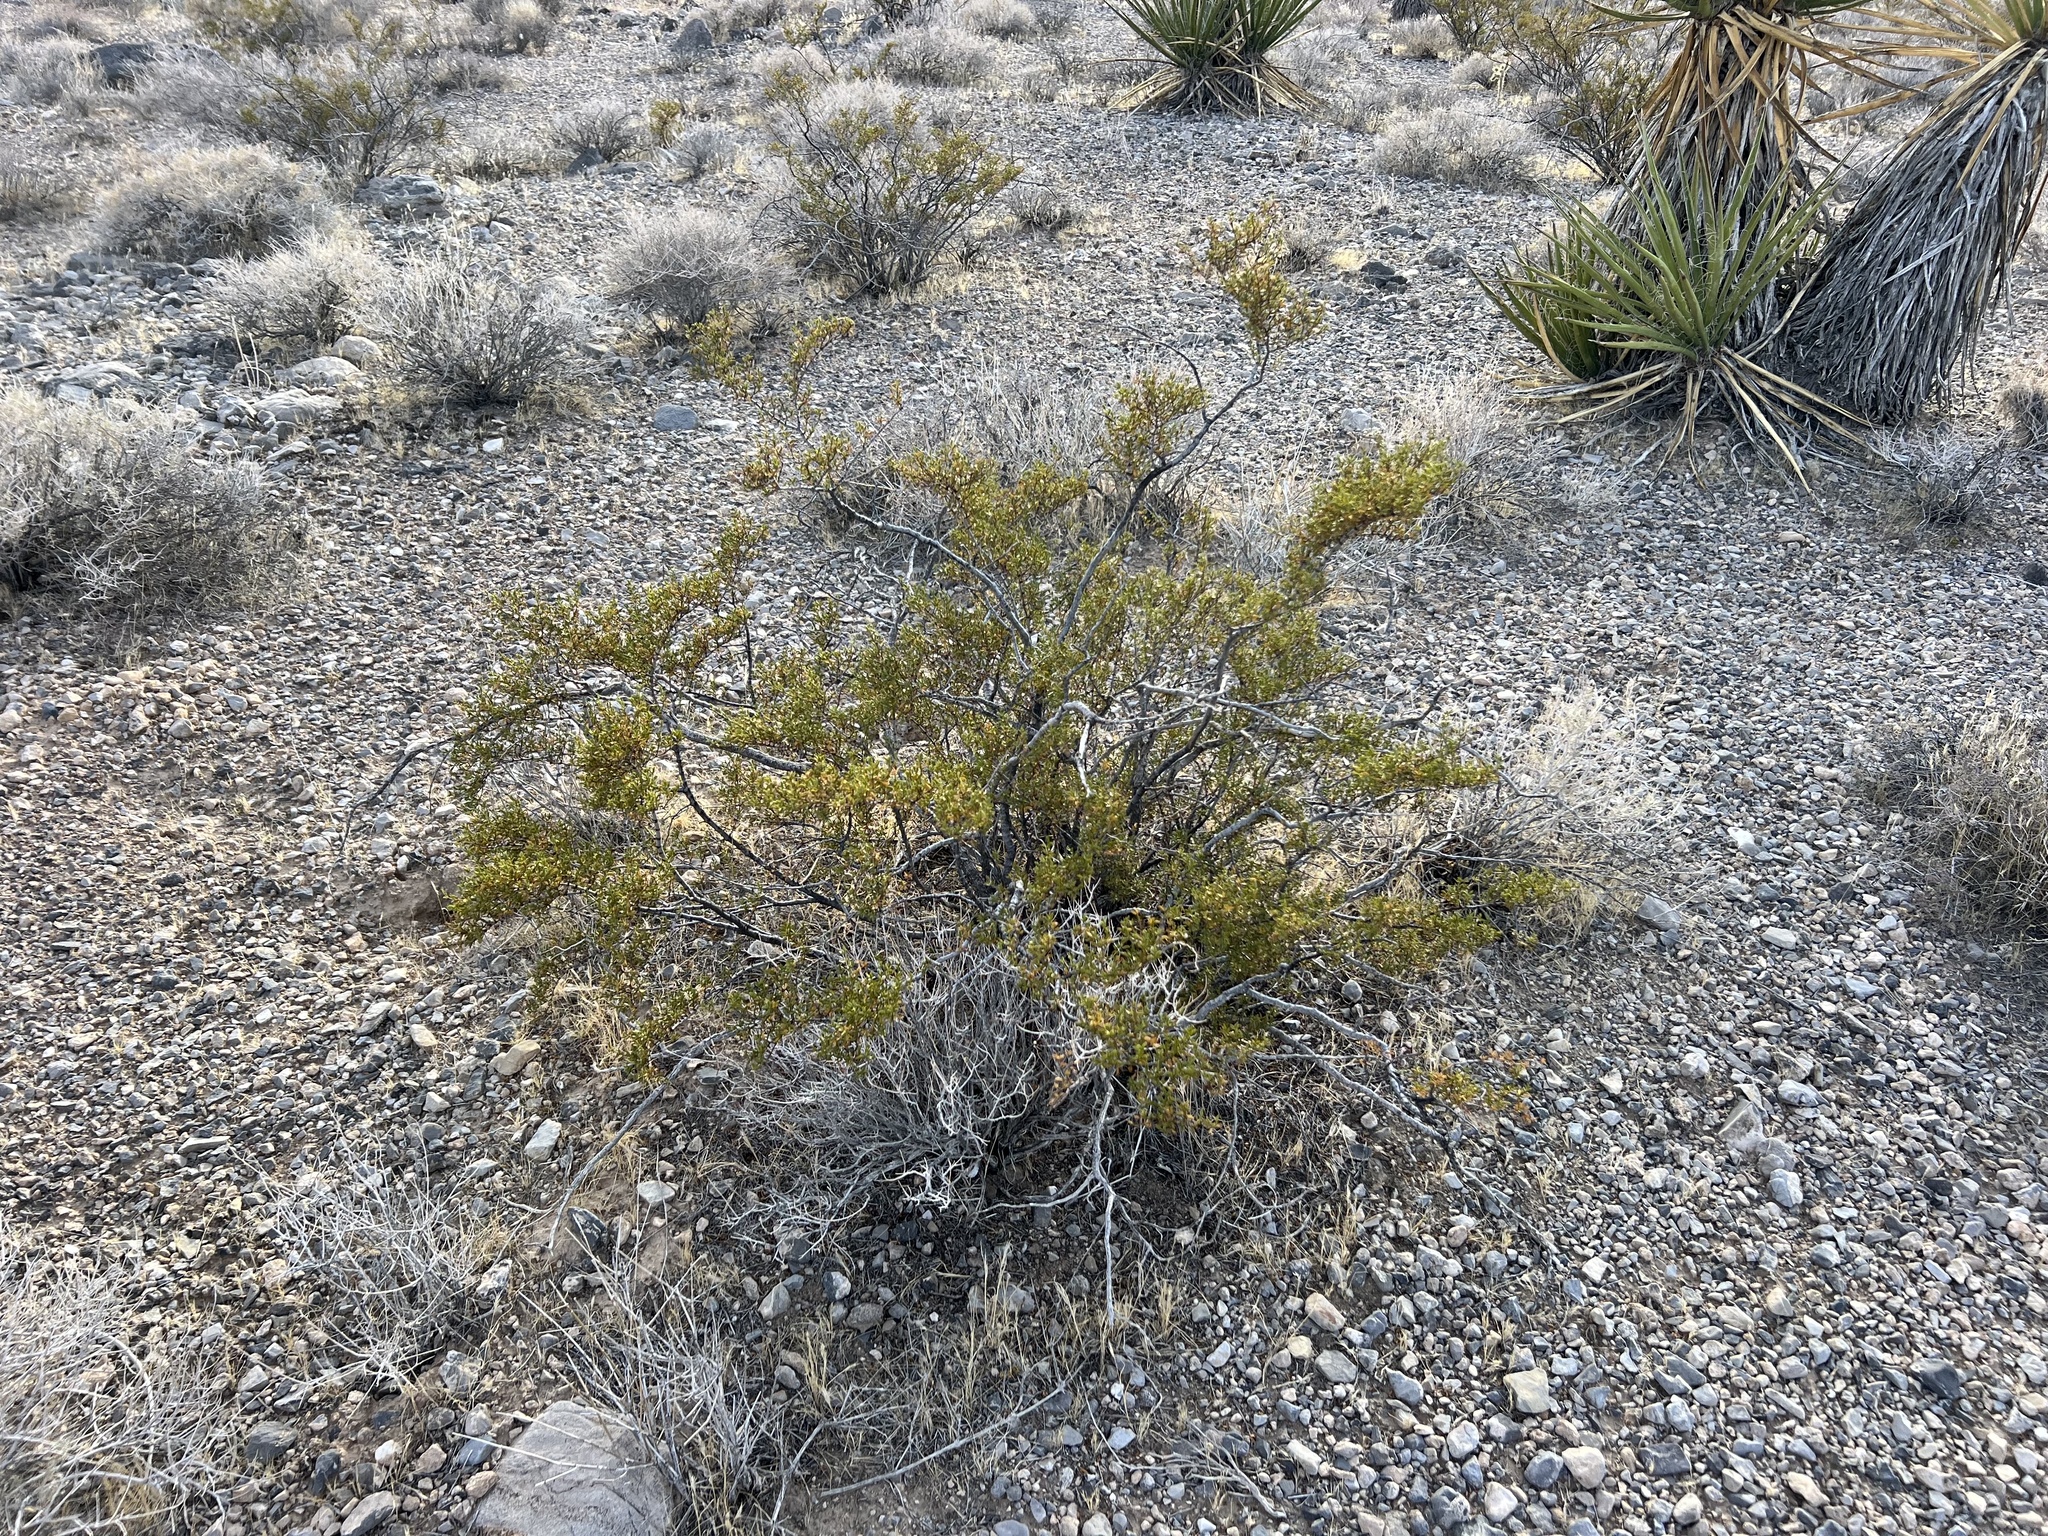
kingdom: Plantae
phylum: Tracheophyta
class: Magnoliopsida
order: Zygophyllales
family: Zygophyllaceae
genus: Larrea
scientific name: Larrea tridentata
